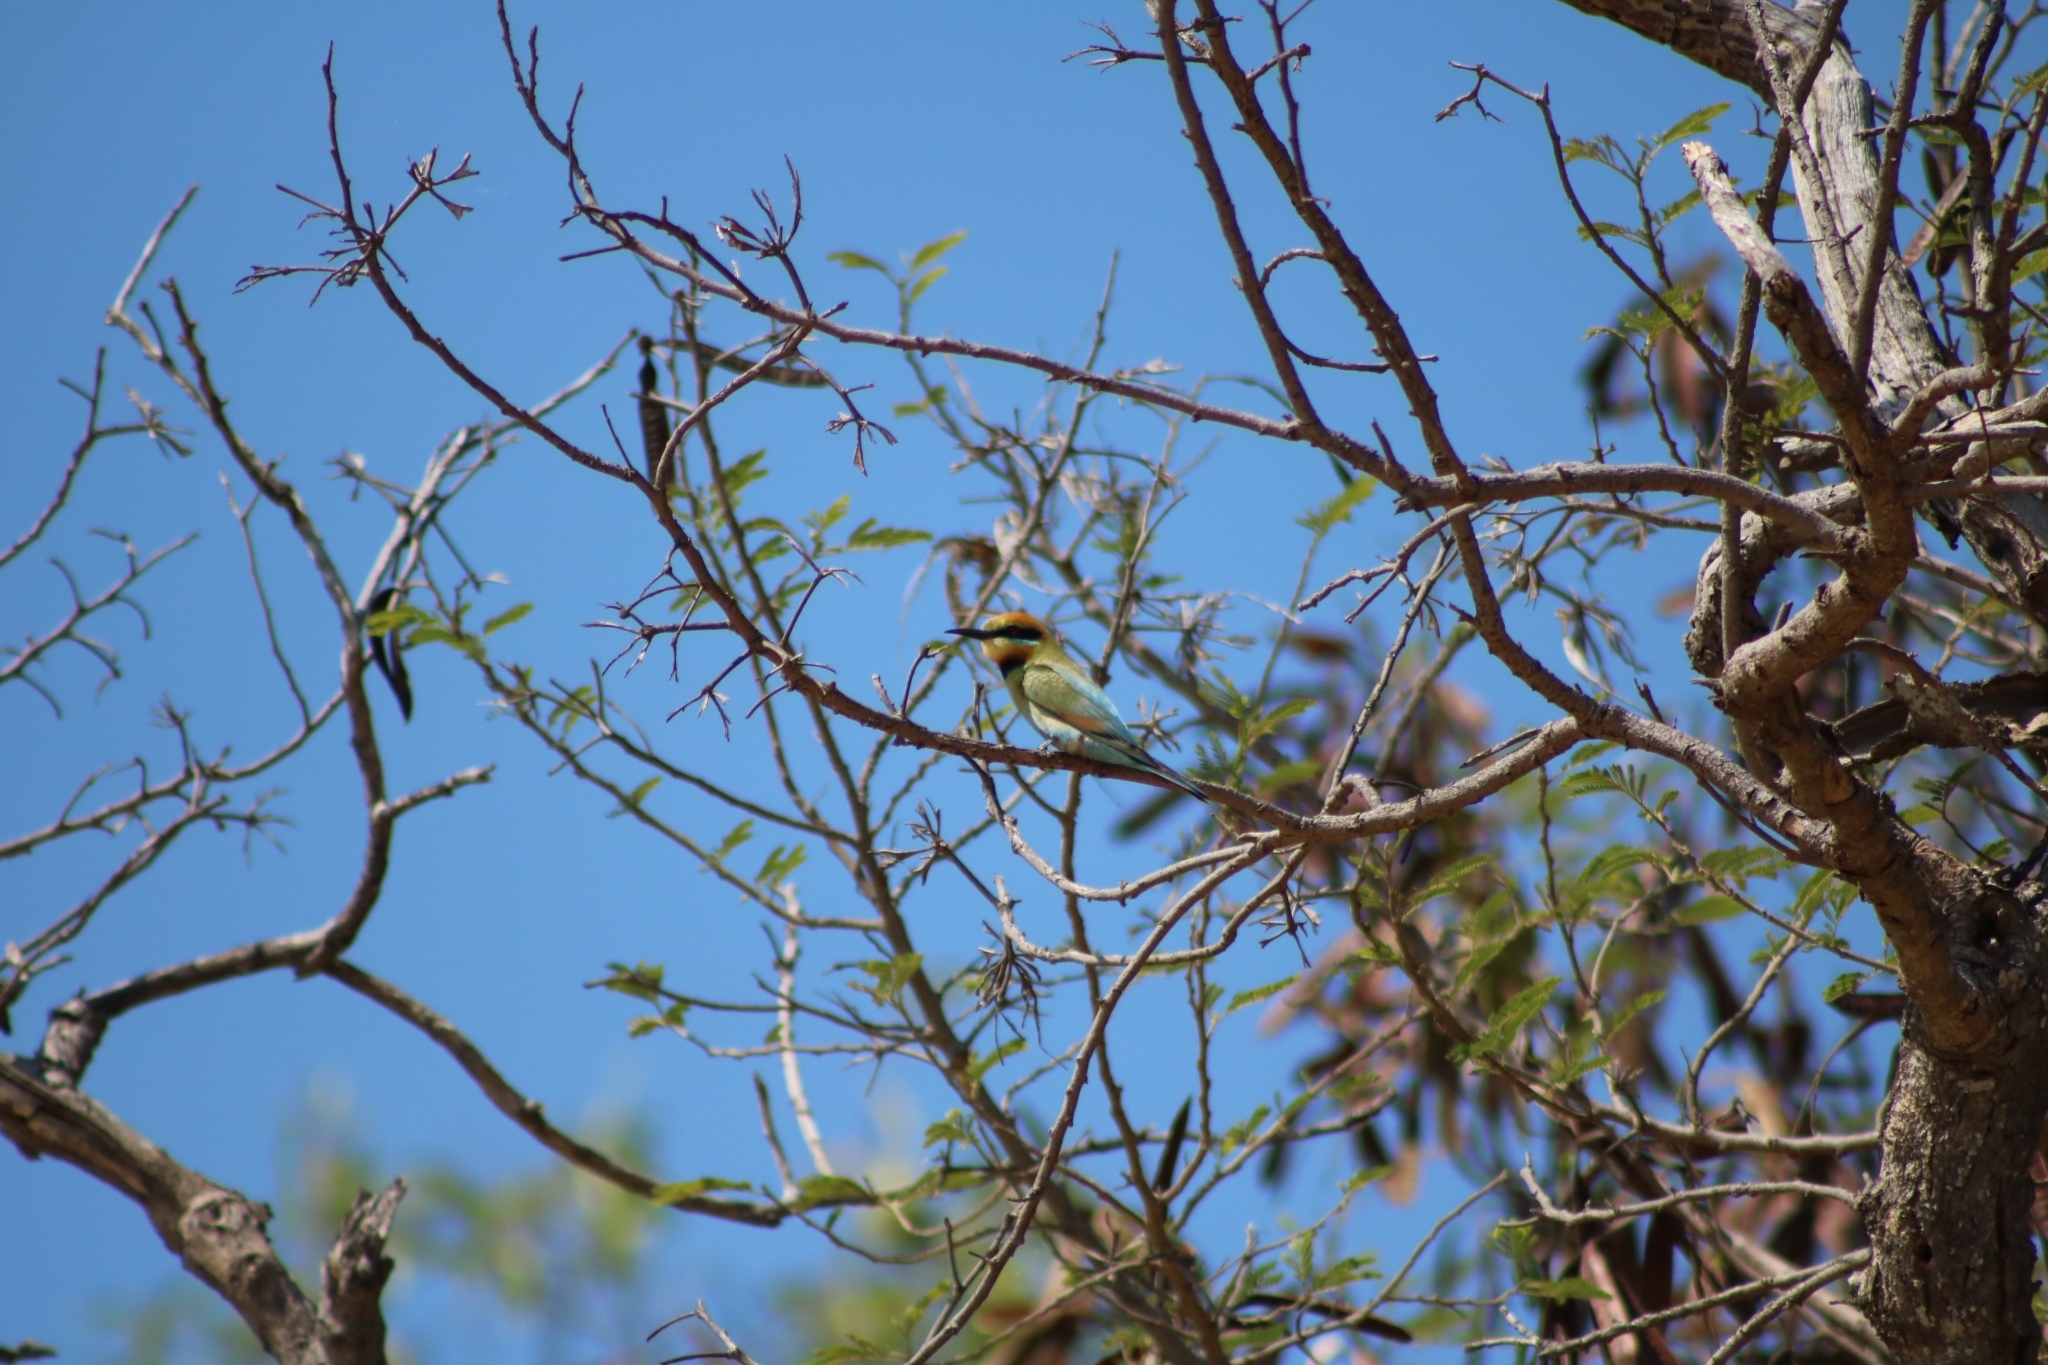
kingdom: Animalia
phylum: Chordata
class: Aves
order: Coraciiformes
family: Meropidae
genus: Merops
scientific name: Merops ornatus
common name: Rainbow bee-eater
